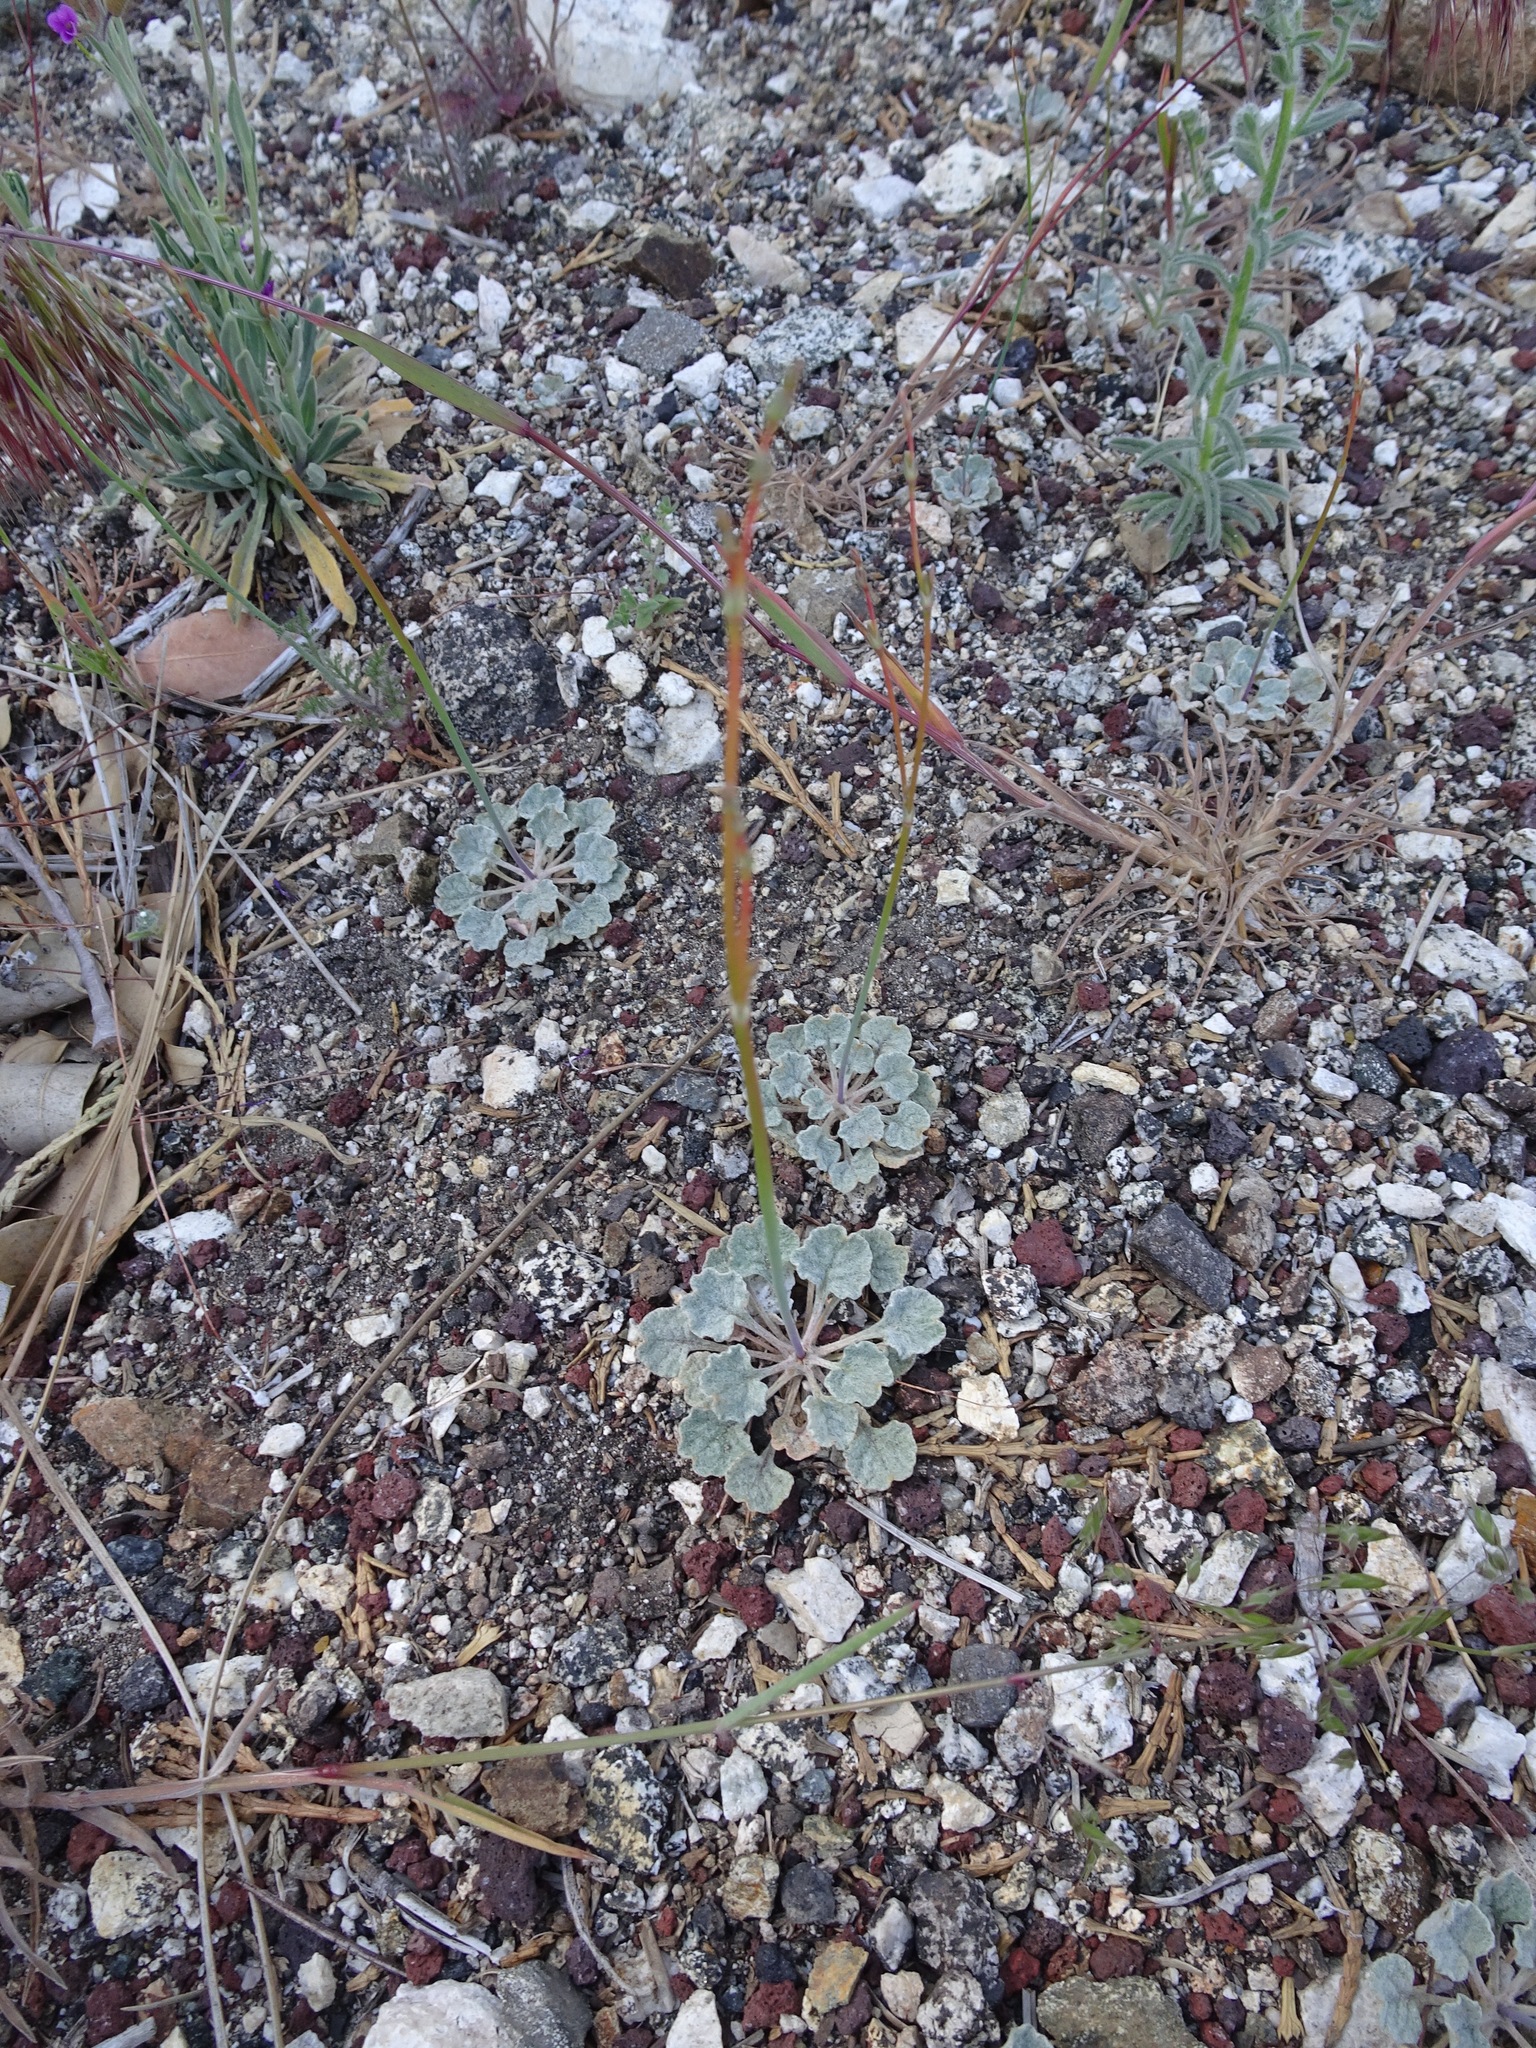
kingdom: Plantae
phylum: Tracheophyta
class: Magnoliopsida
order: Caryophyllales
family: Polygonaceae
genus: Eriogonum
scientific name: Eriogonum davidsonii
